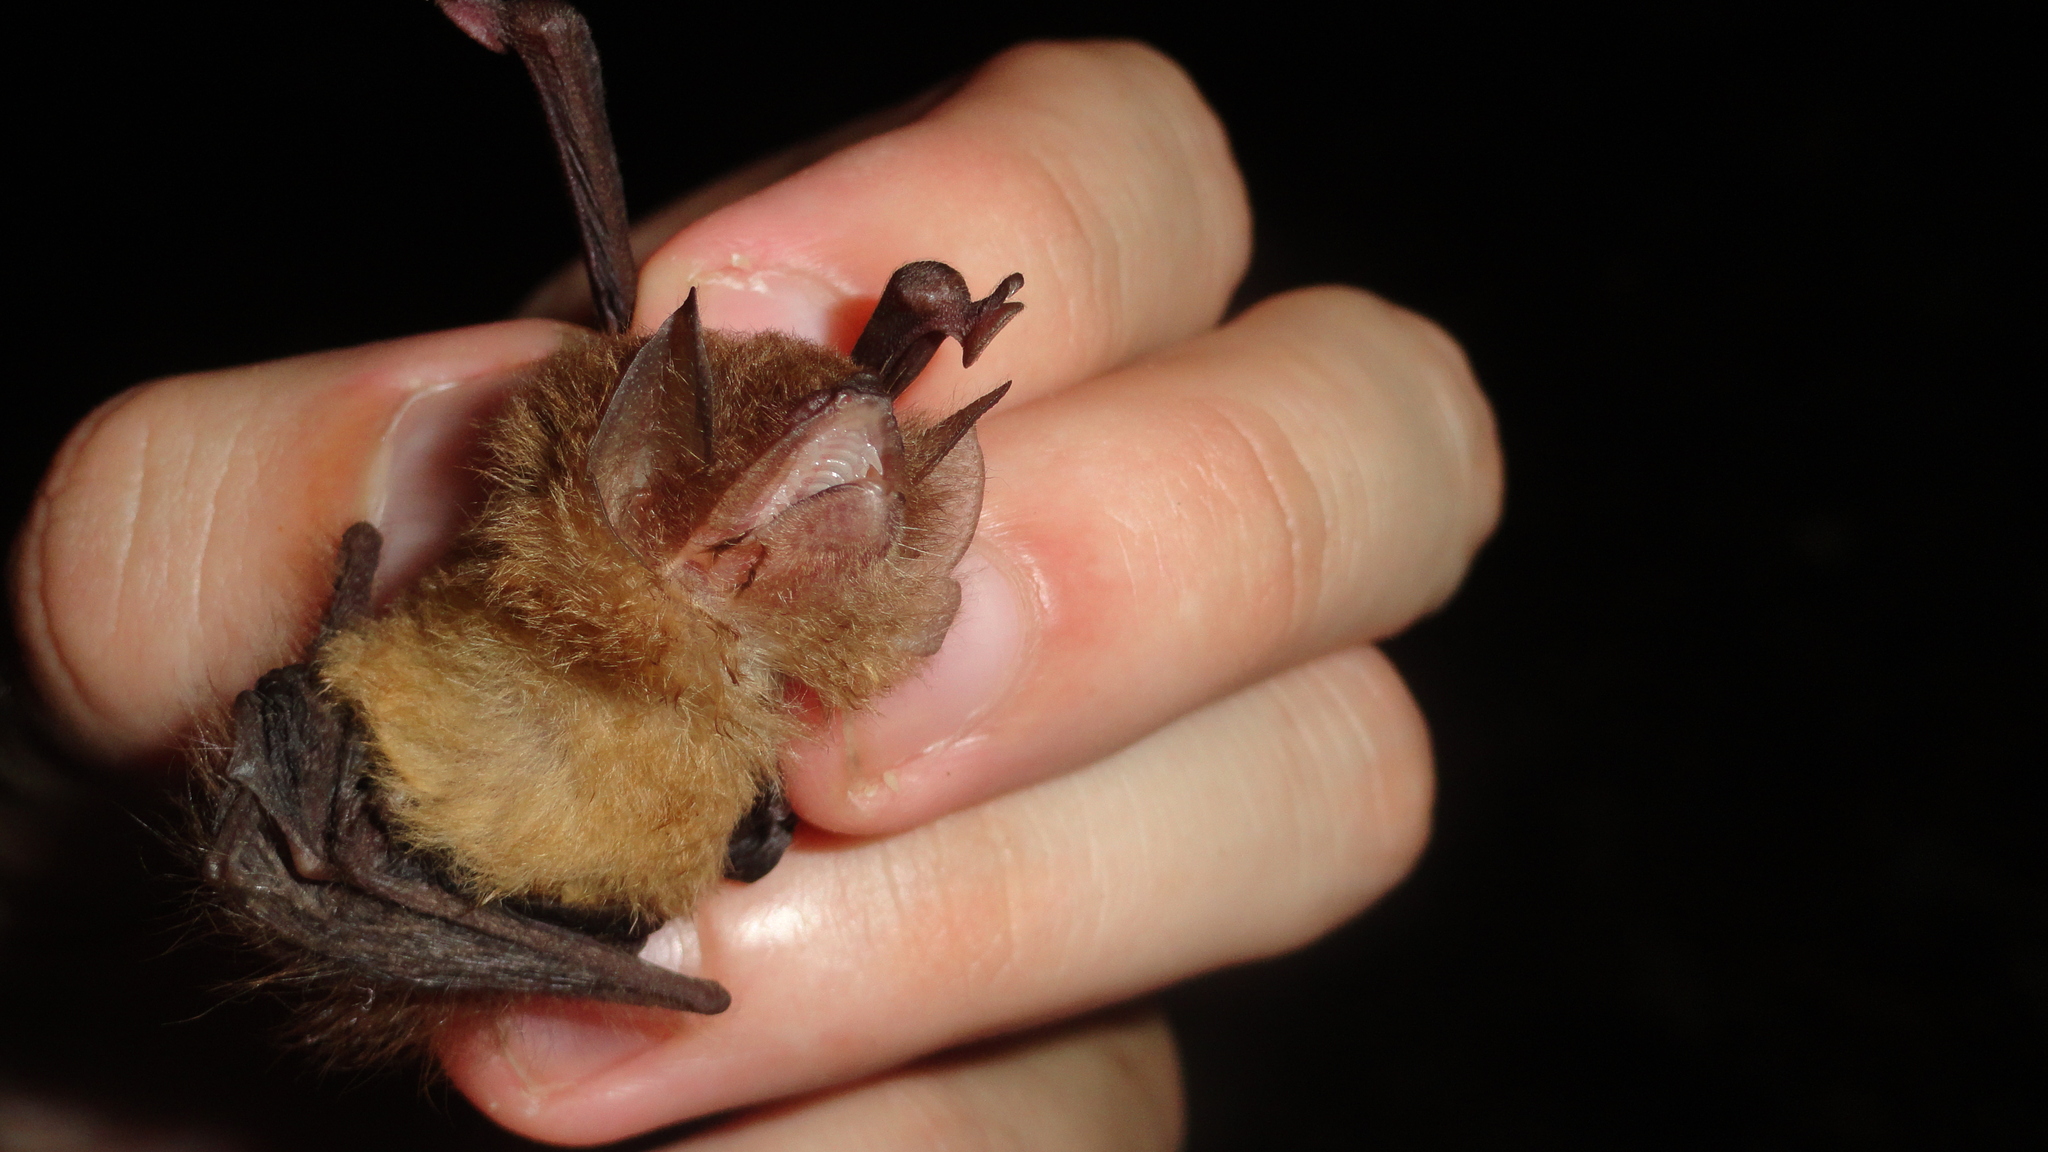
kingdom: Animalia
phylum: Chordata
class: Mammalia
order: Chiroptera
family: Thyropteridae
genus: Thyroptera
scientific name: Thyroptera discifera
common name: Peters's disk-winged bat
